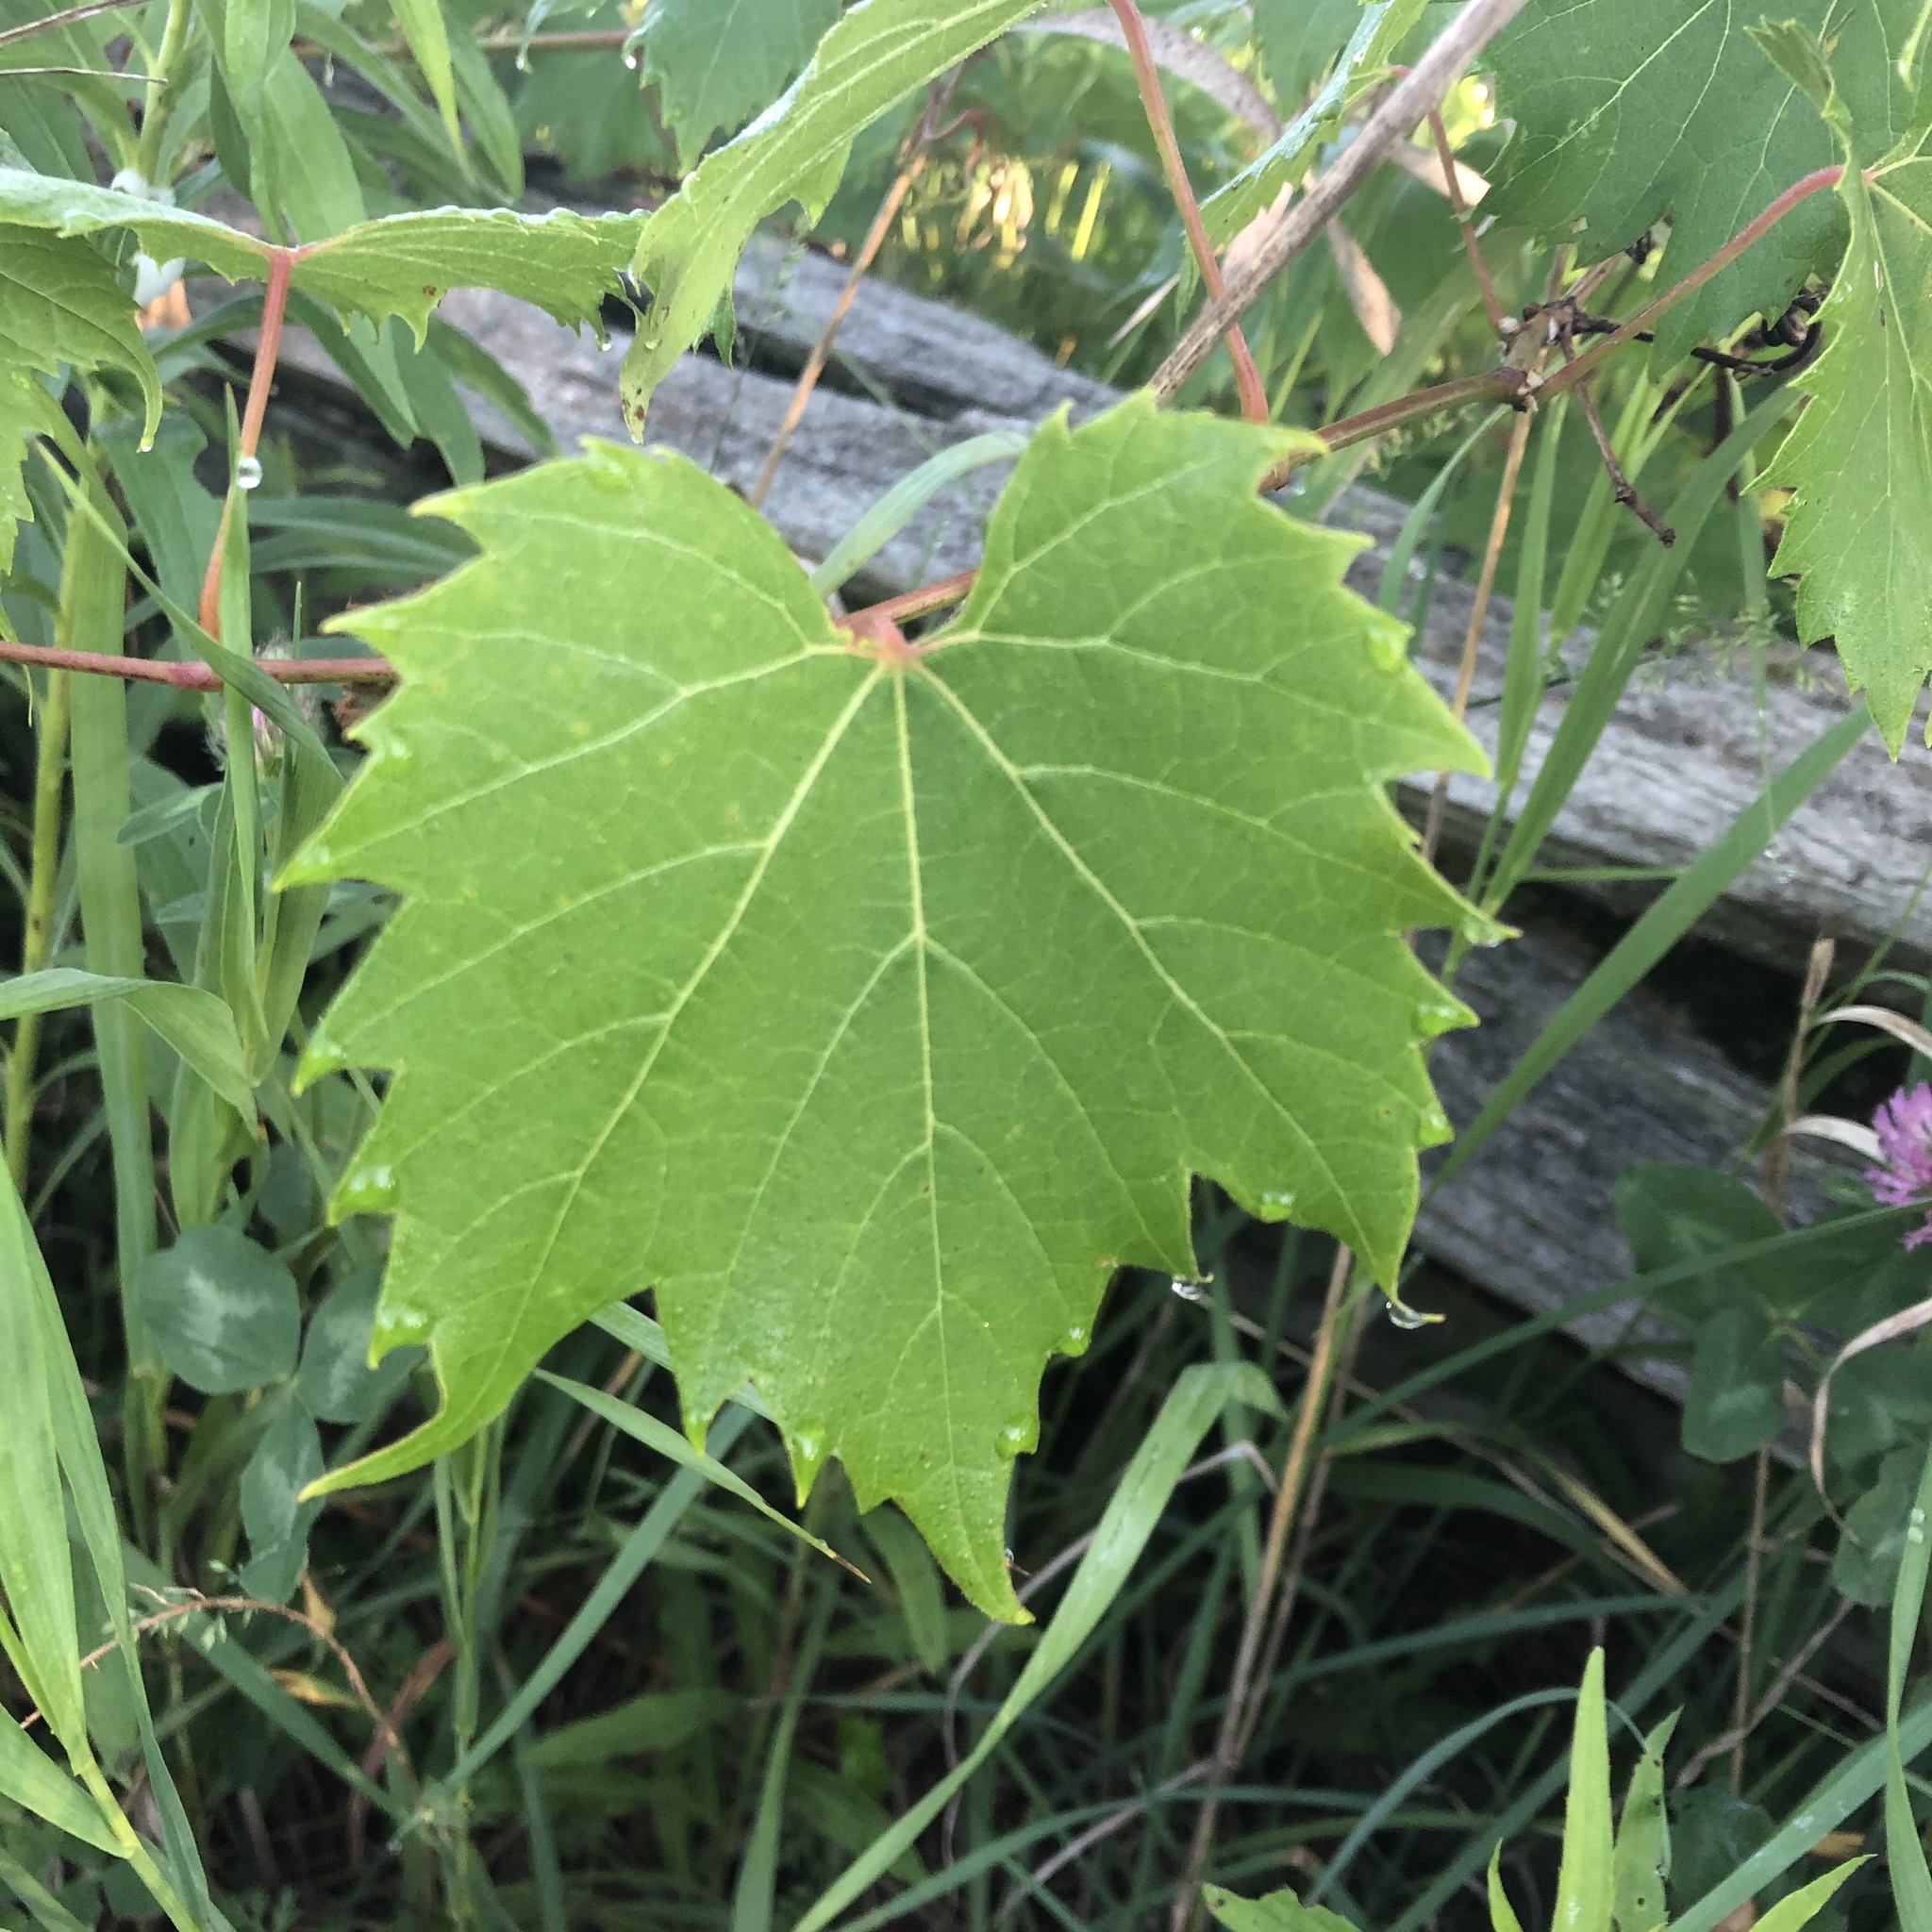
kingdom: Plantae
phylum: Tracheophyta
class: Magnoliopsida
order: Vitales
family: Vitaceae
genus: Vitis
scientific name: Vitis riparia
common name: Frost grape
